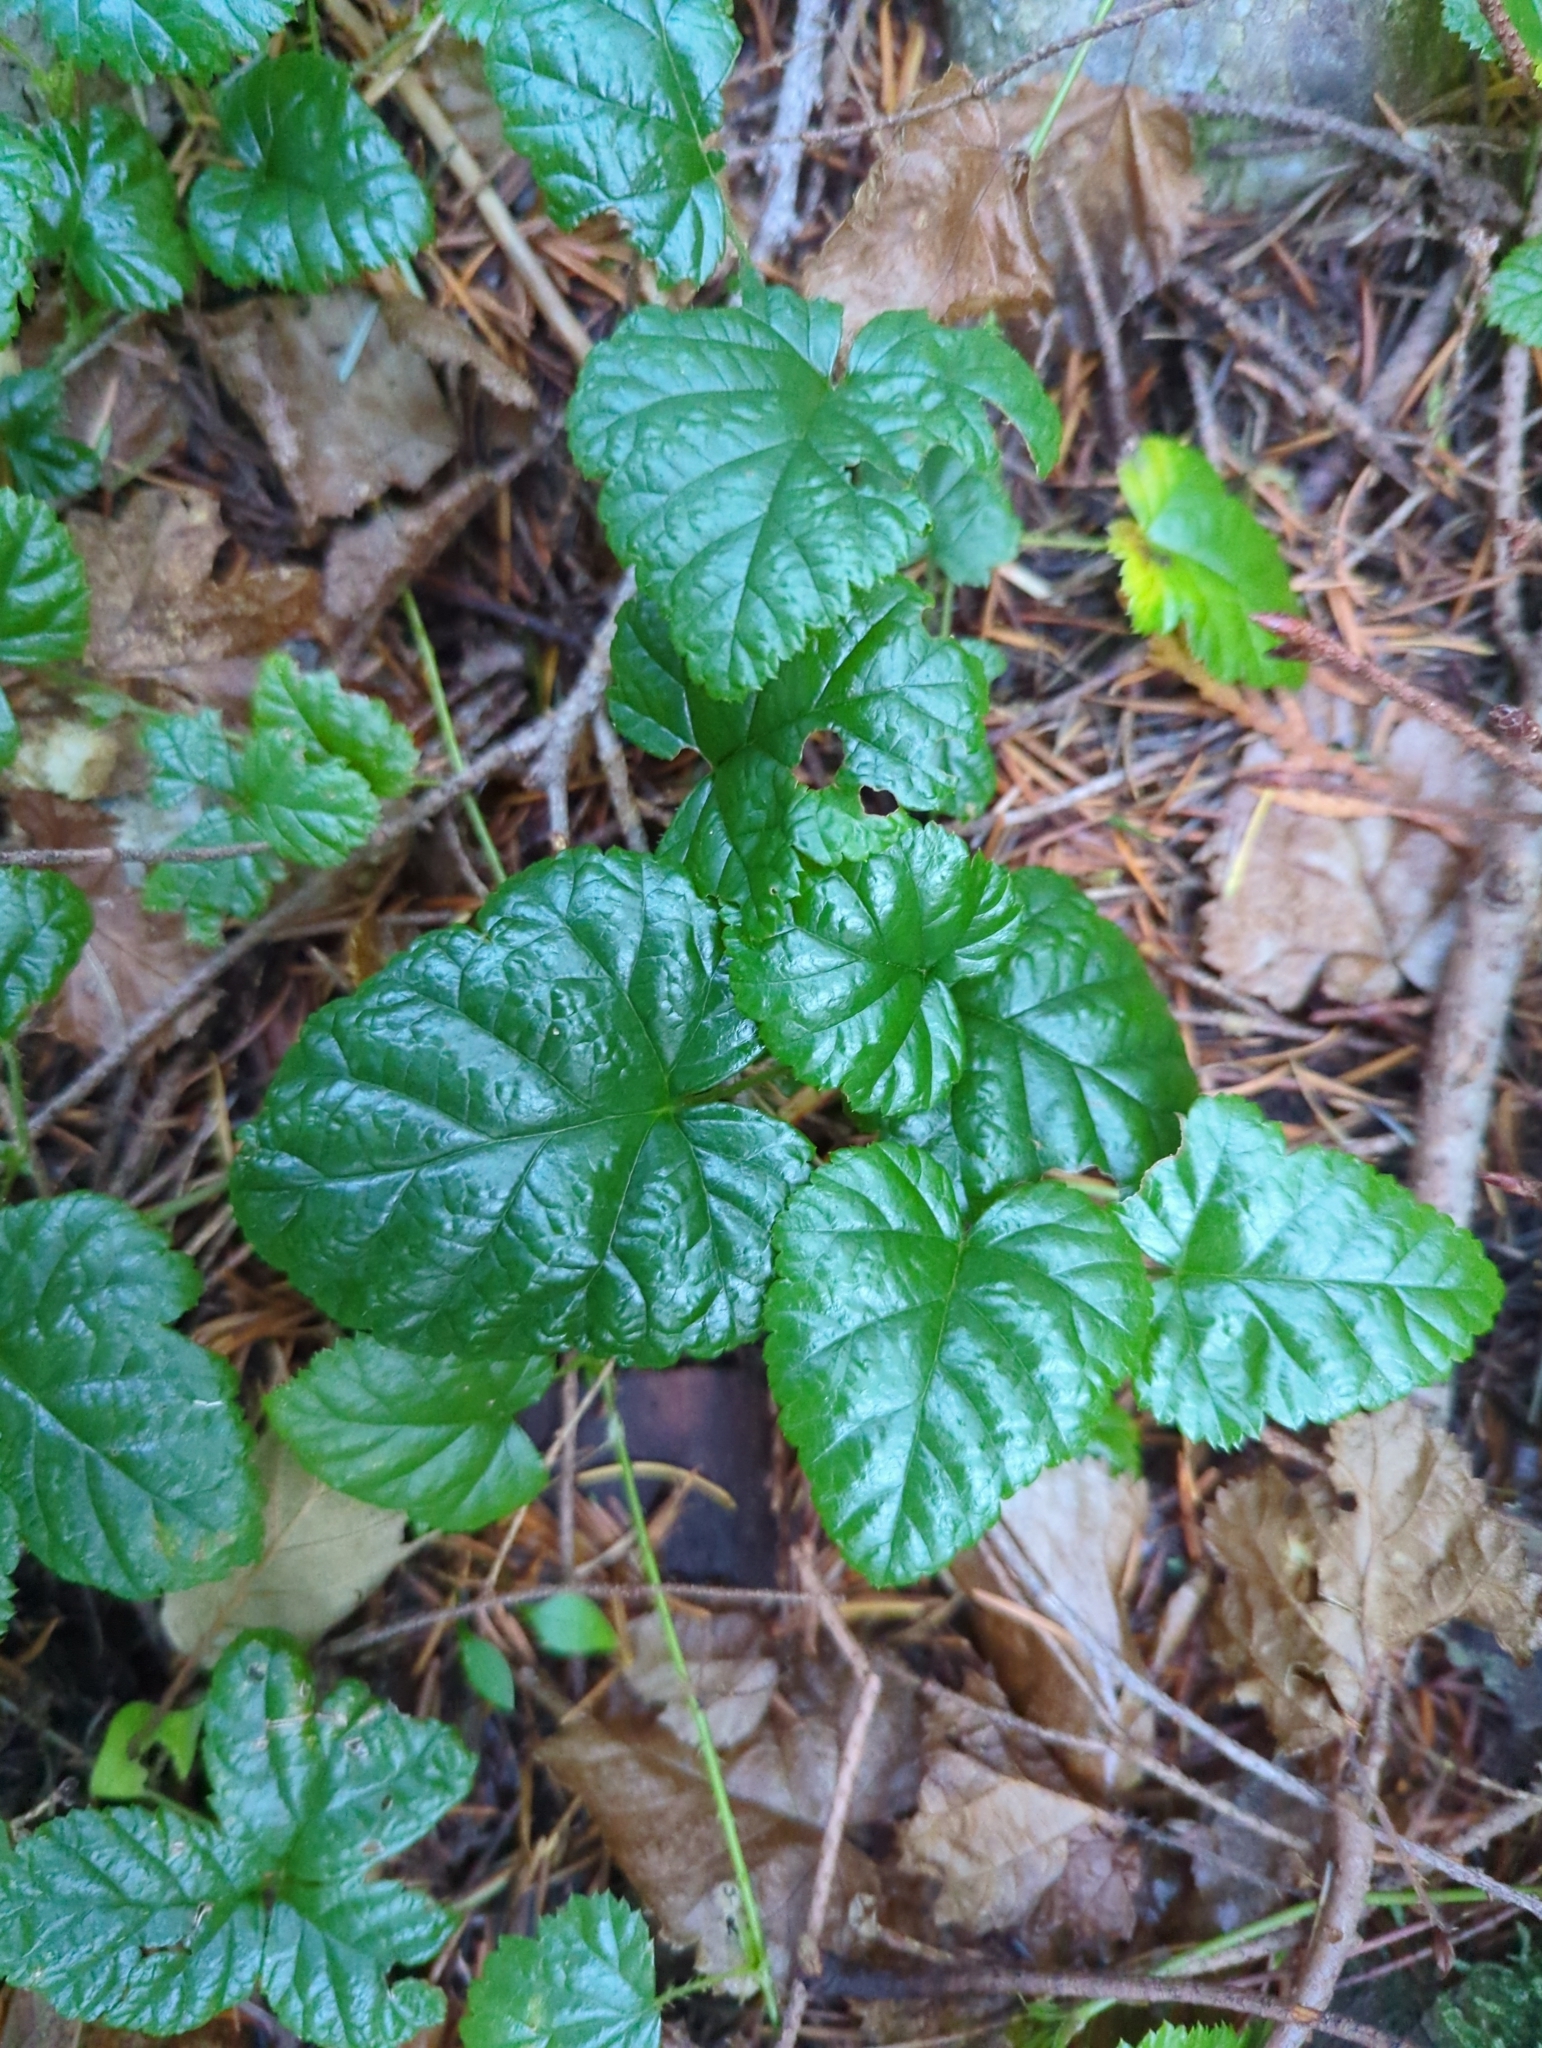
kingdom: Plantae
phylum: Tracheophyta
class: Magnoliopsida
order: Rosales
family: Rosaceae
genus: Rubus
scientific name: Rubus nivalis
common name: Dwarf snow bramble
